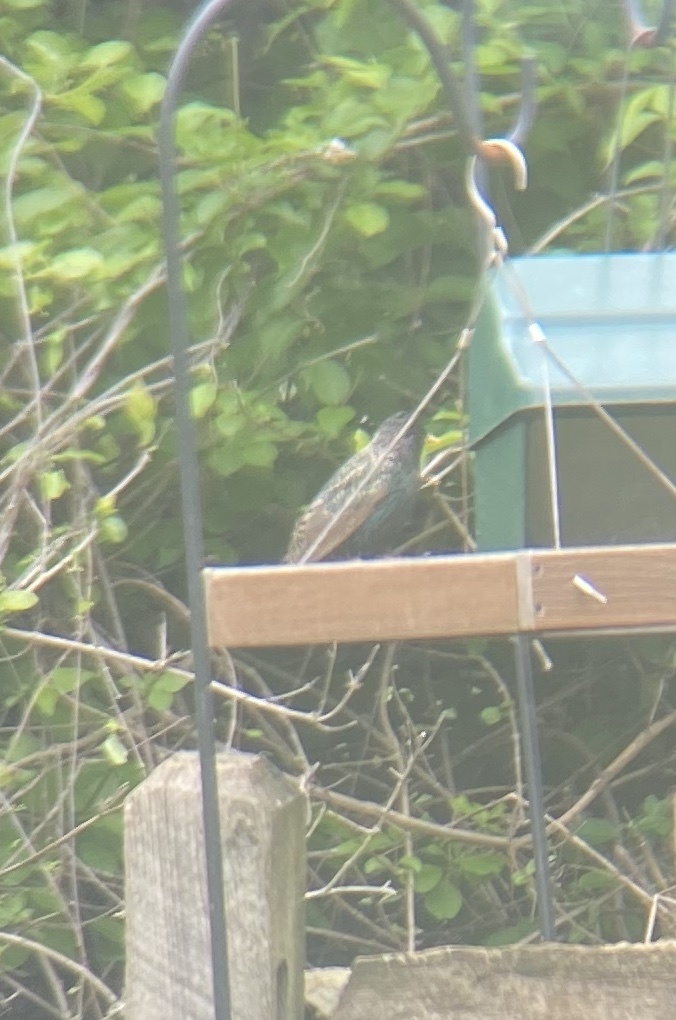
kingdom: Animalia
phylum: Chordata
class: Aves
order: Passeriformes
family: Sturnidae
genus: Sturnus
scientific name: Sturnus vulgaris
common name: Common starling
